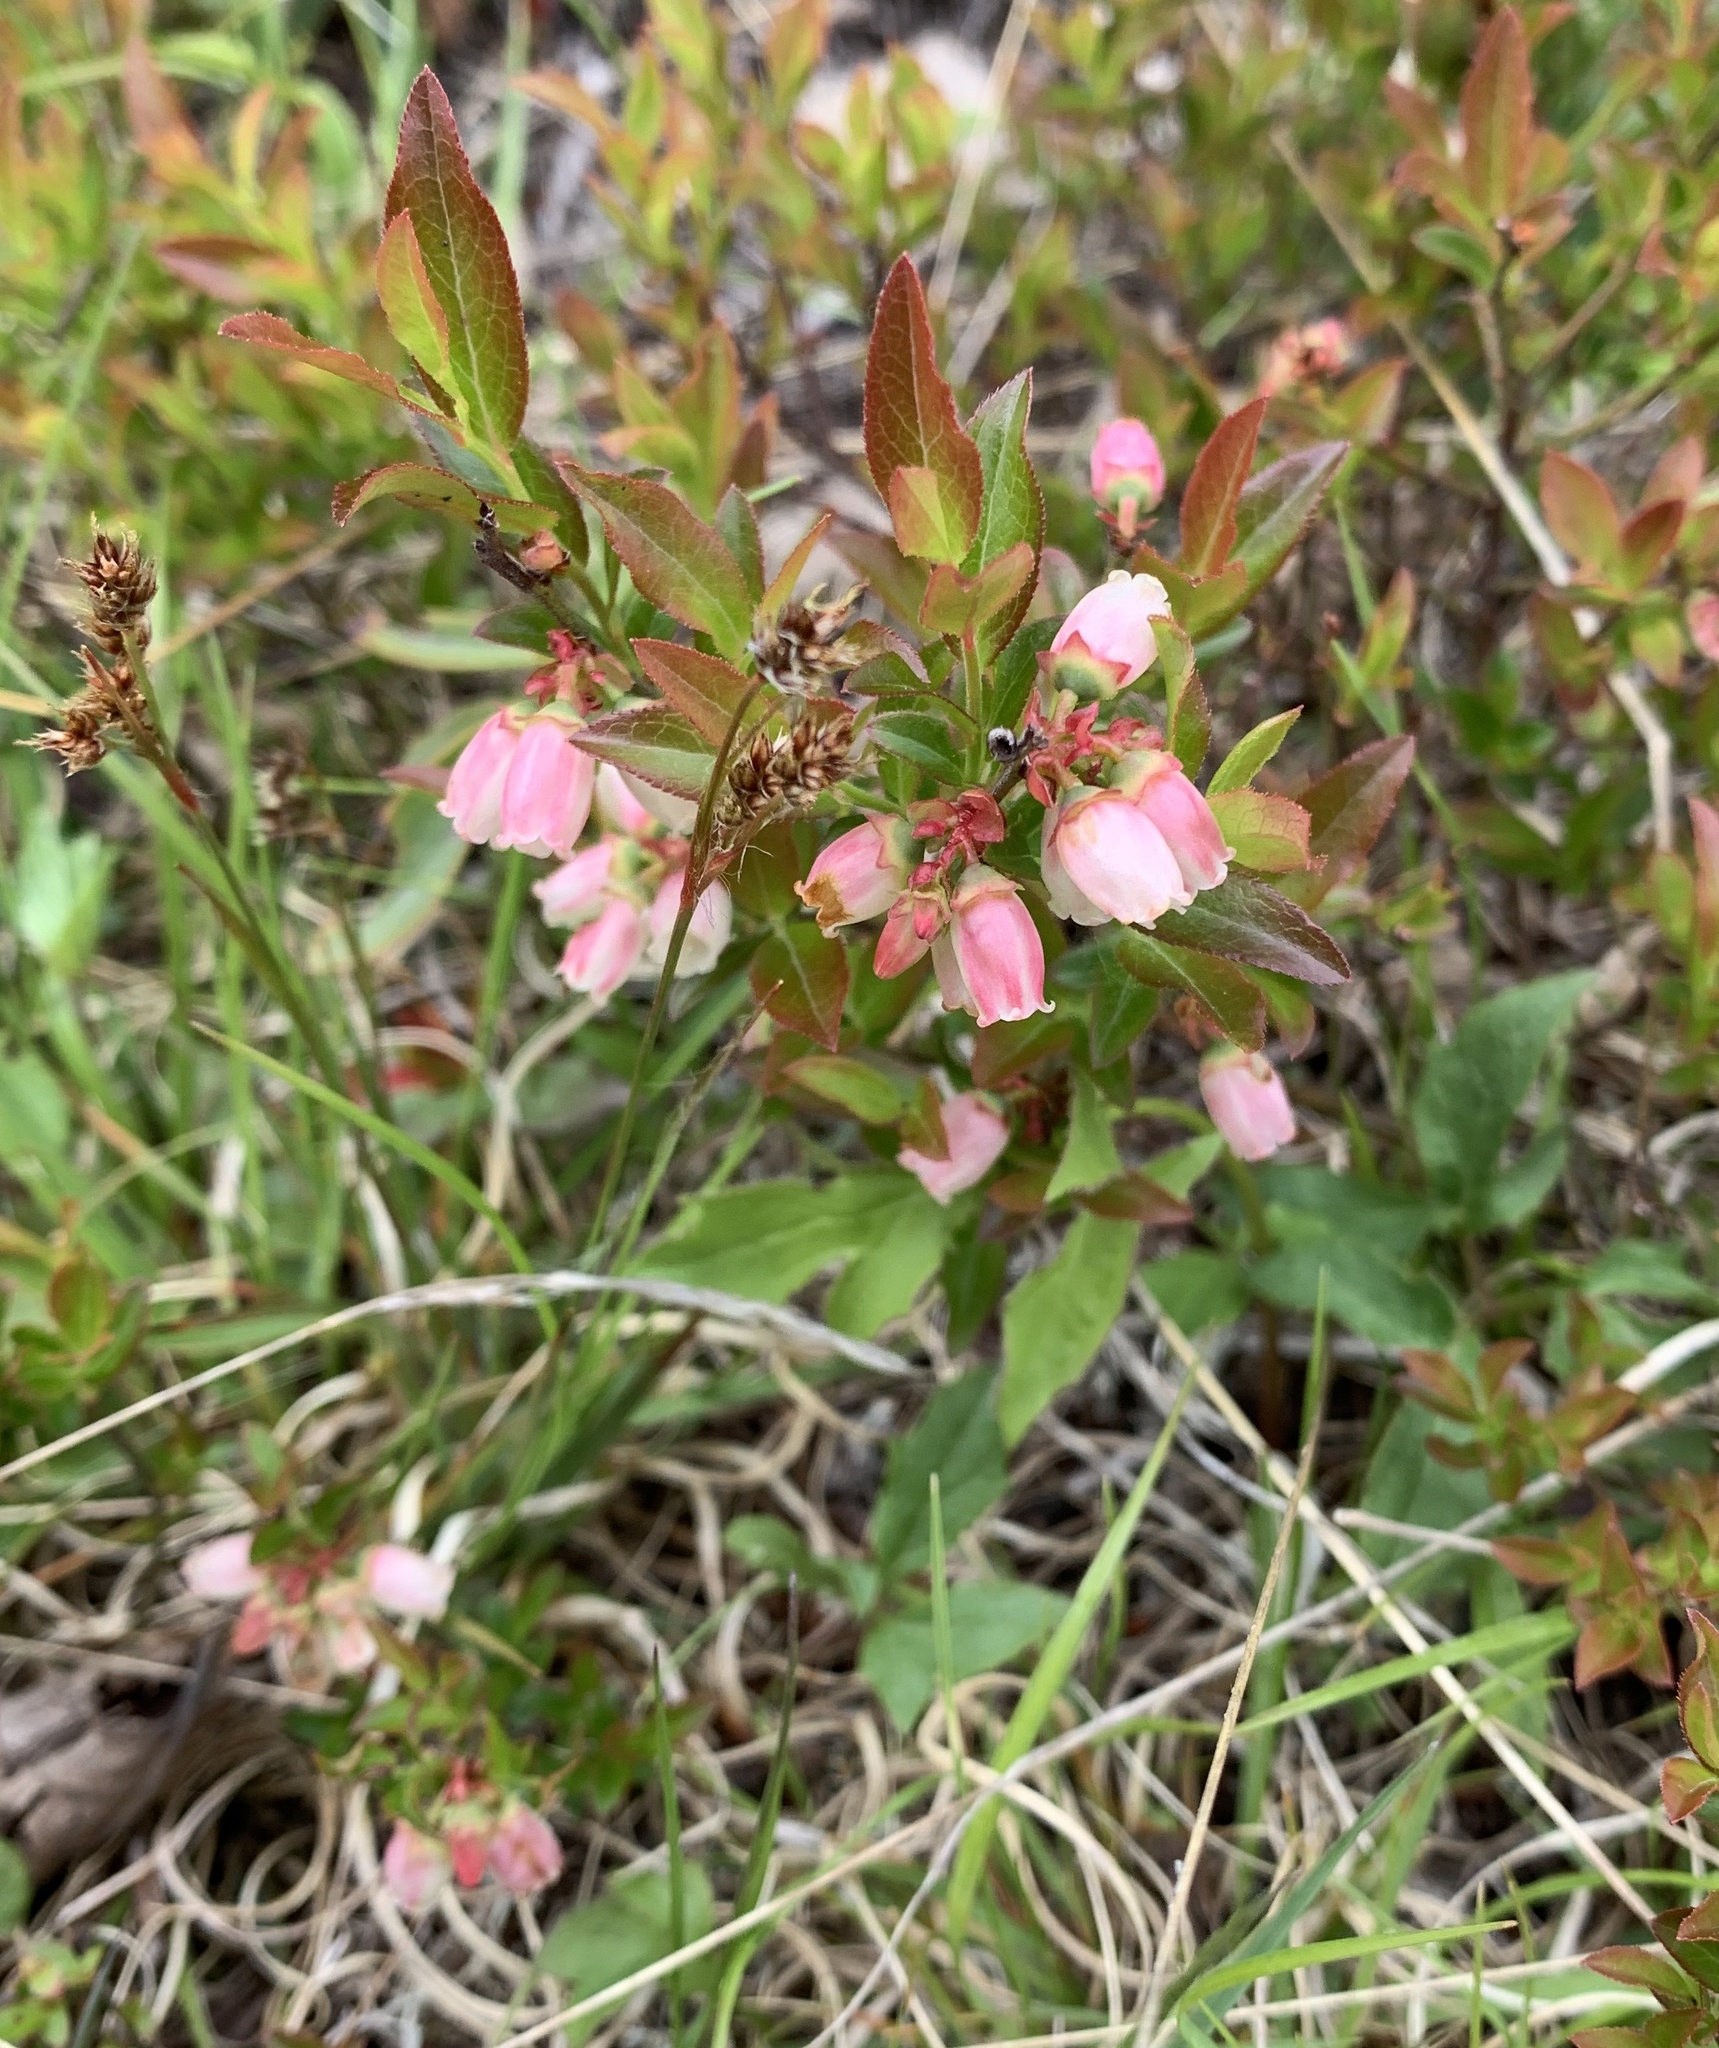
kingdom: Plantae
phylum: Tracheophyta
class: Magnoliopsida
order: Ericales
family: Ericaceae
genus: Vaccinium
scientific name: Vaccinium angustifolium
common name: Early lowbush blueberry
